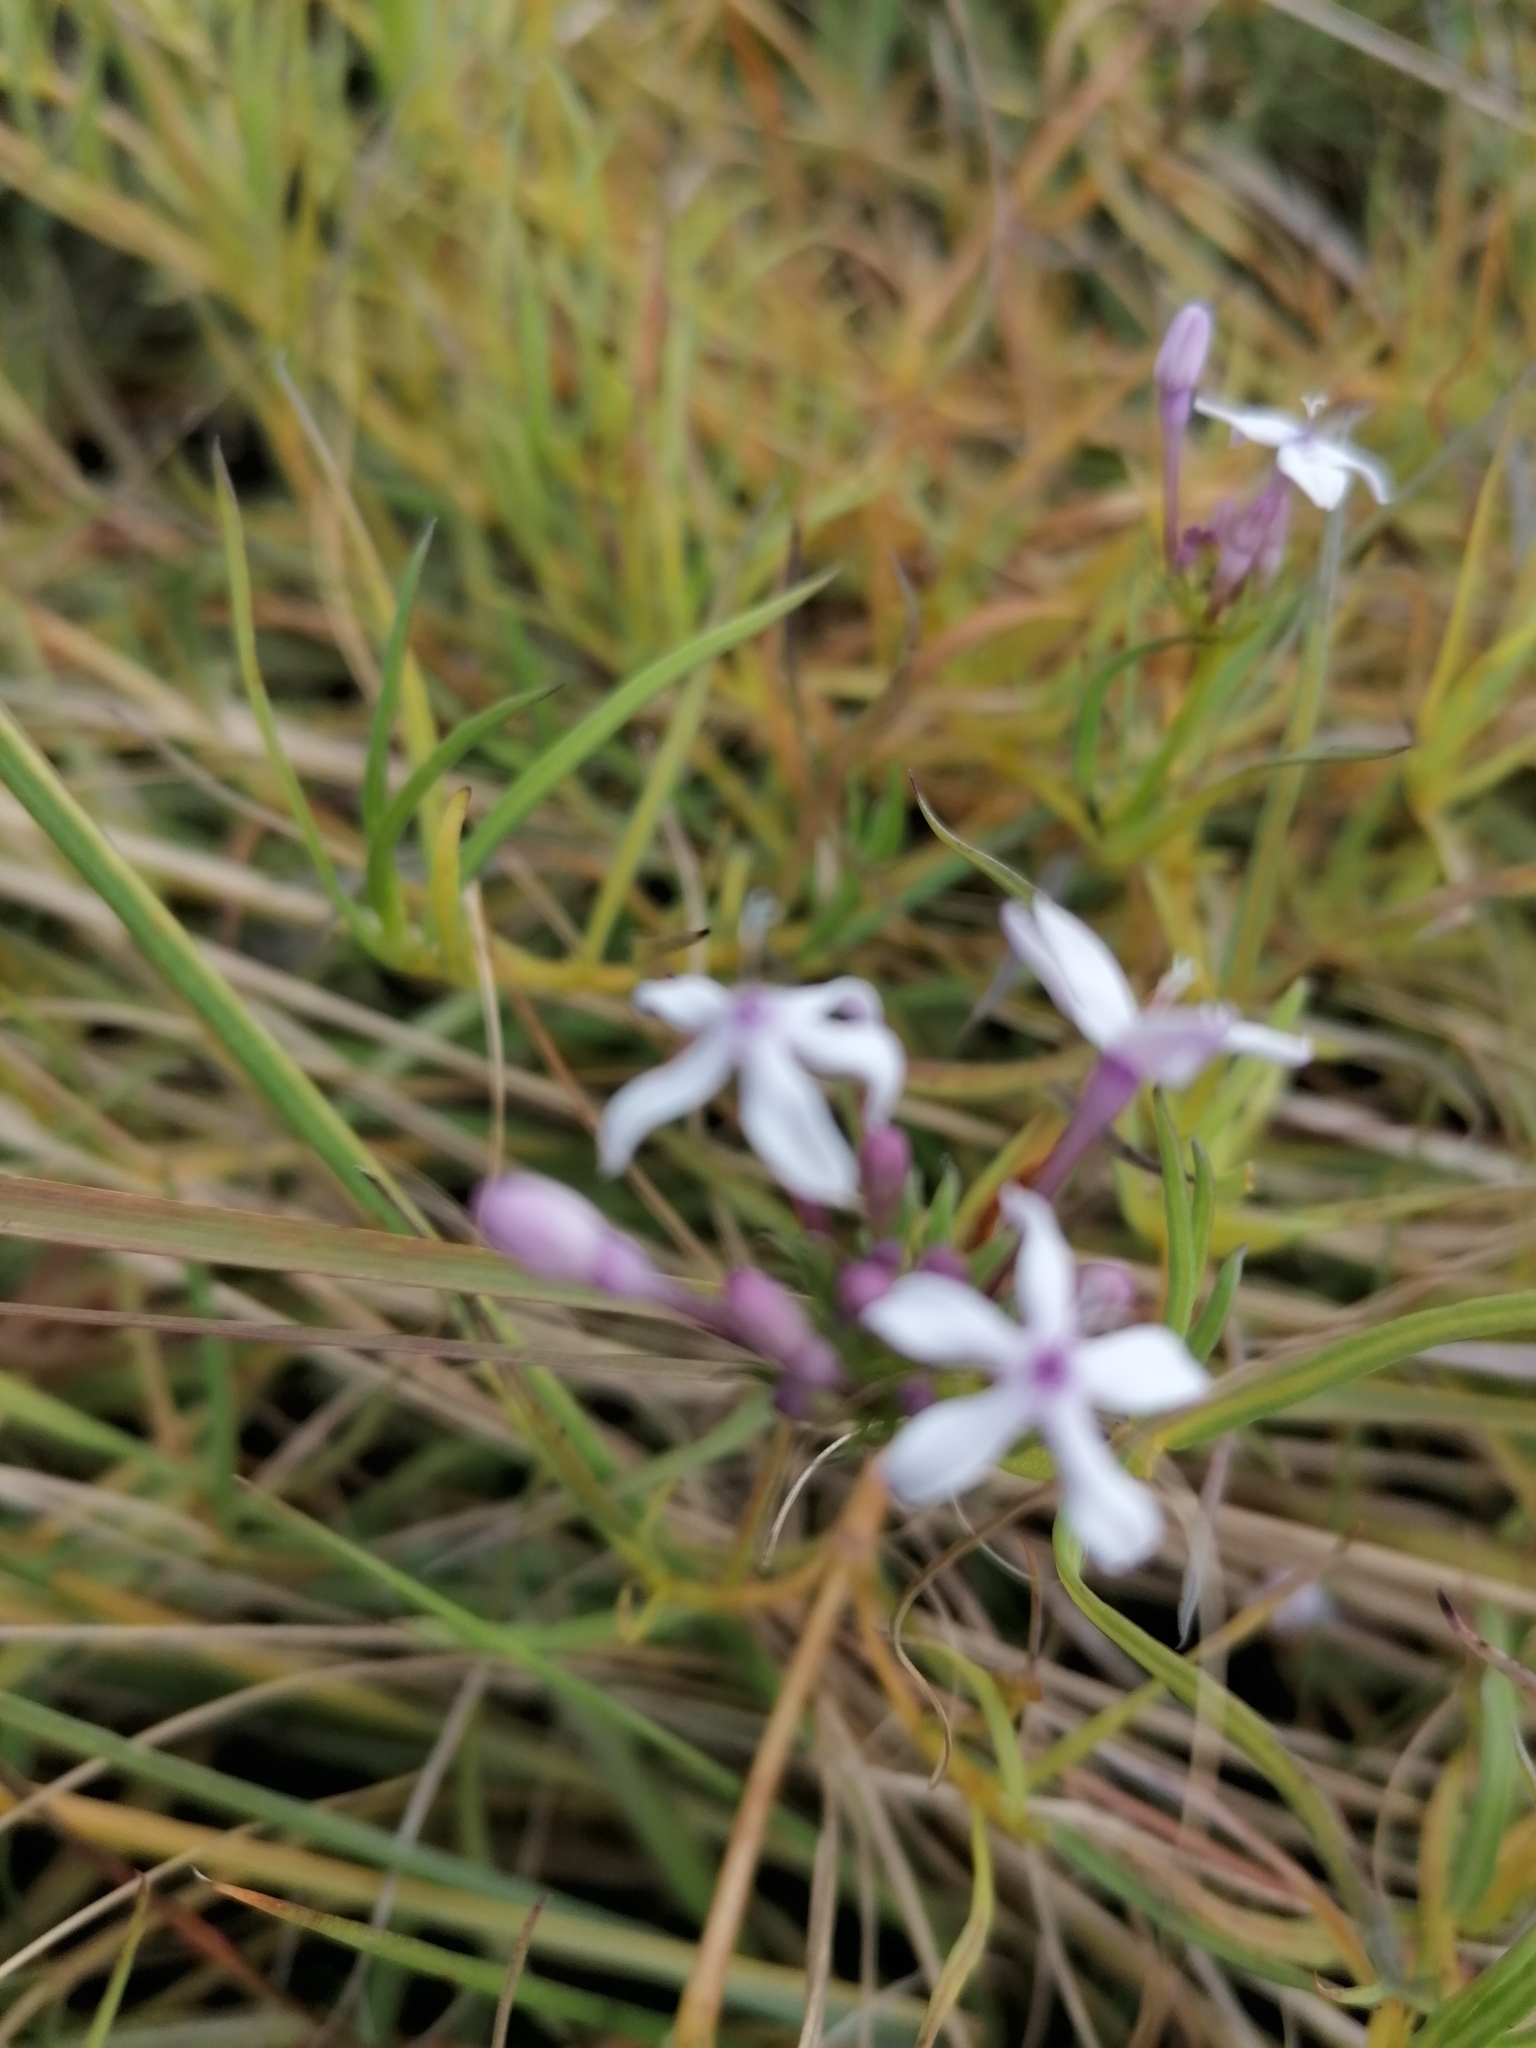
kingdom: Plantae
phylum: Tracheophyta
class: Magnoliopsida
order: Gentianales
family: Rubiaceae
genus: Pentanisia
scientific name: Pentanisia angustifolia
